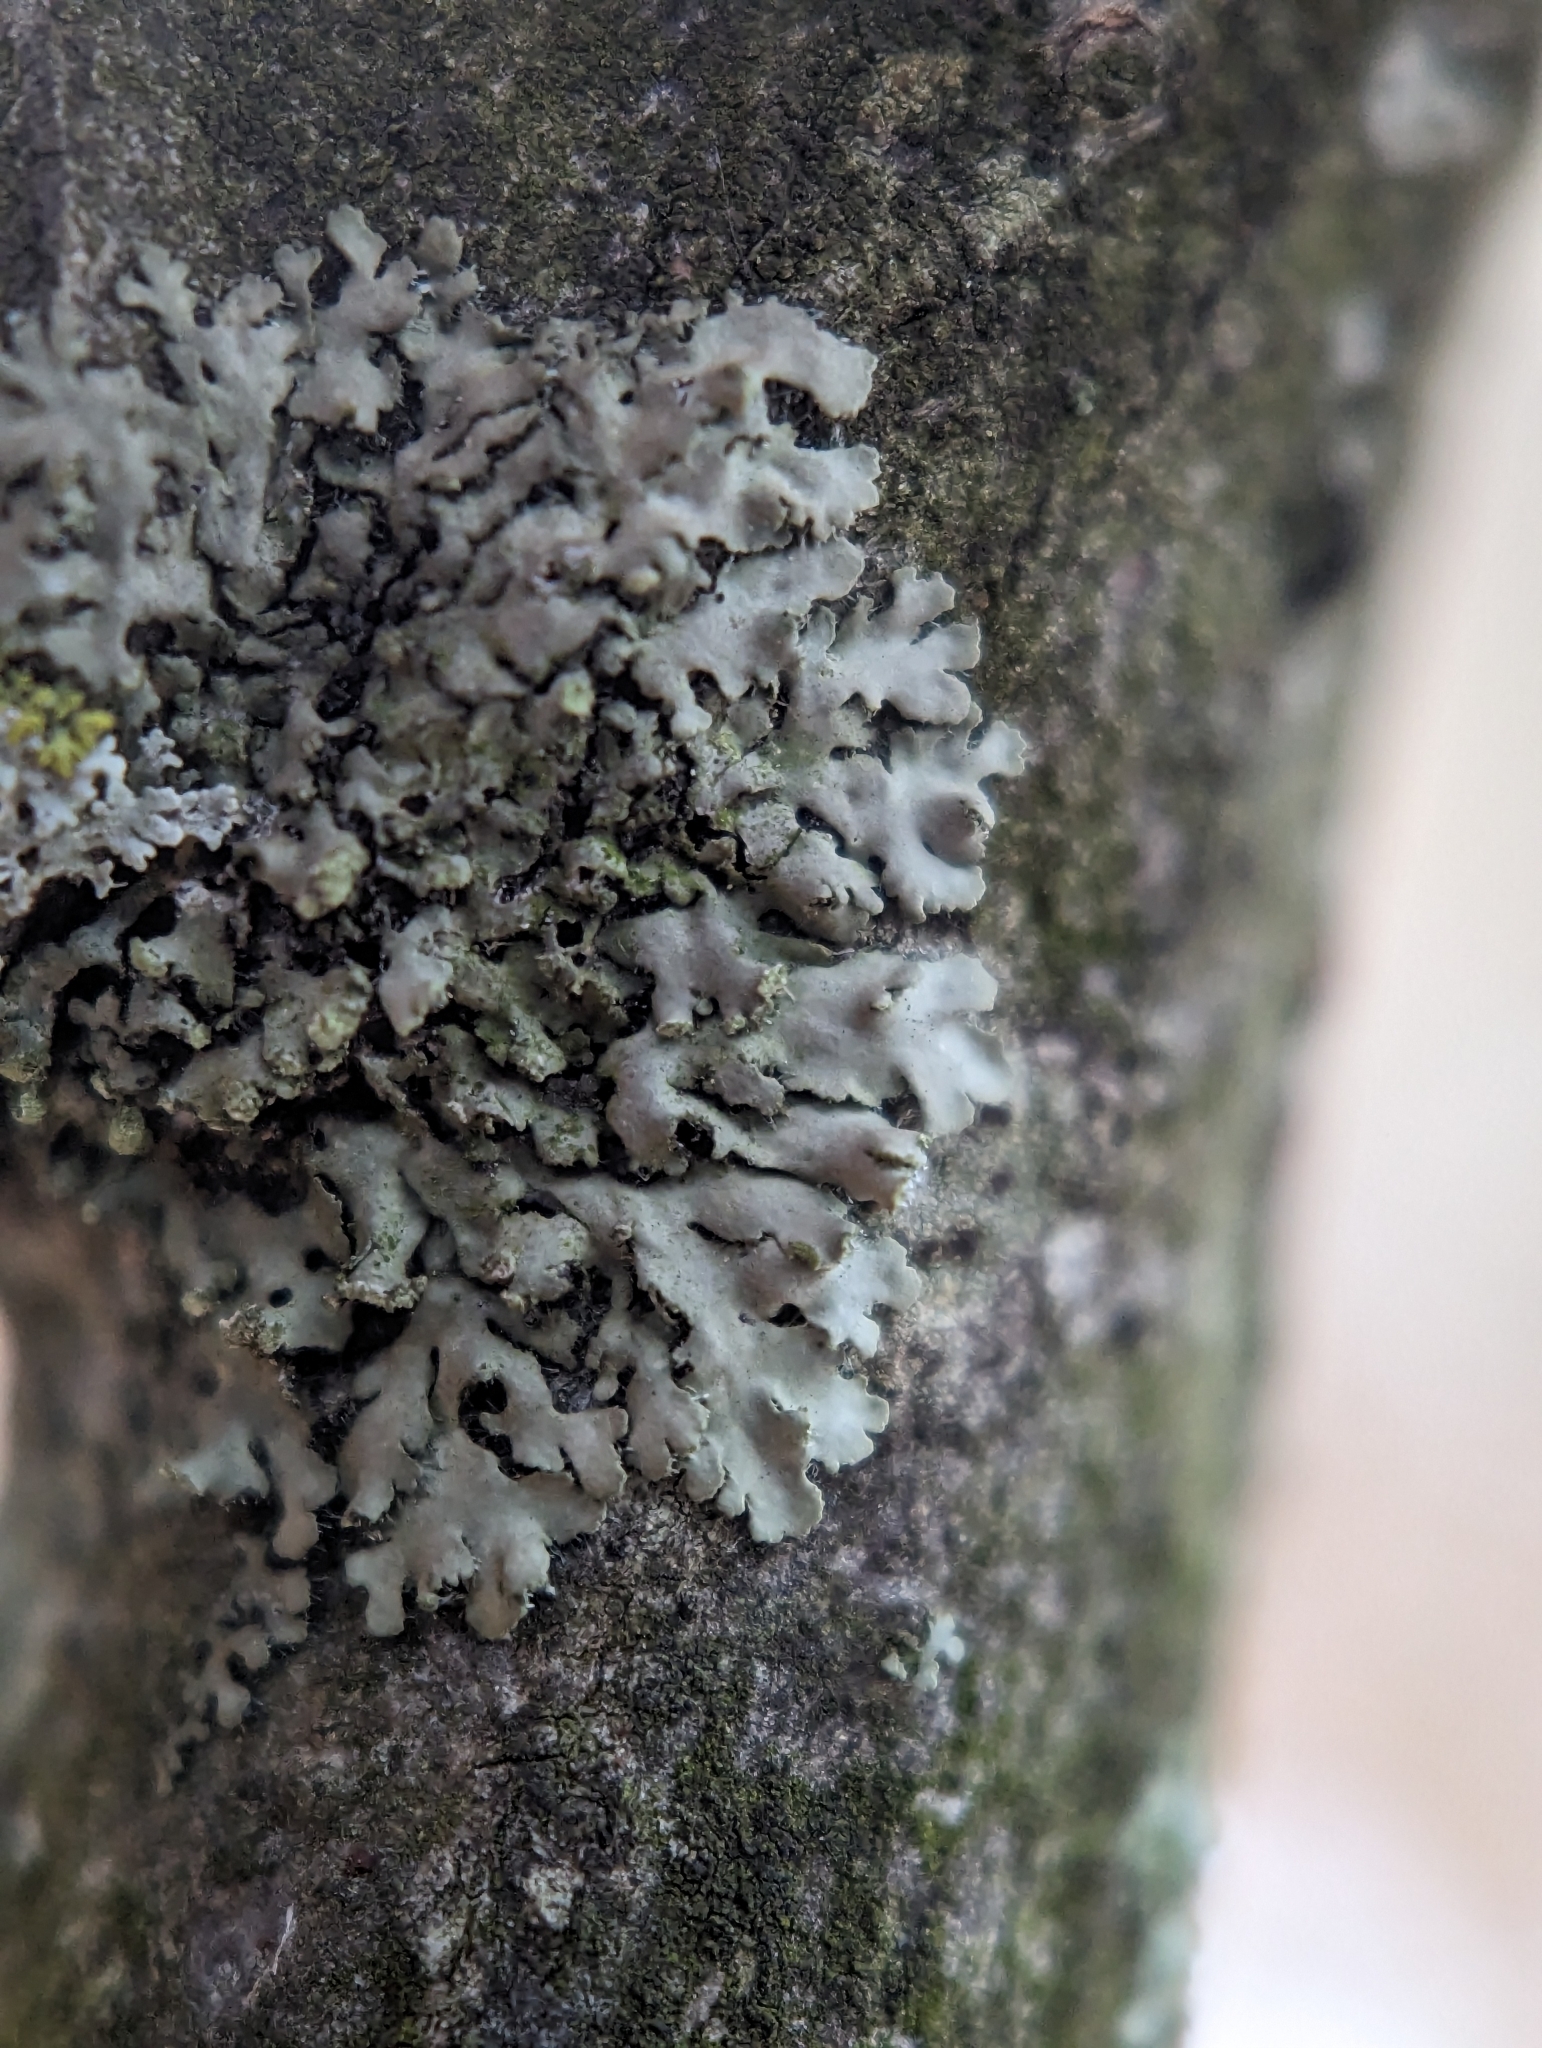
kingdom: Fungi
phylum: Ascomycota
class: Lecanoromycetes
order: Caliciales
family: Physciaceae
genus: Physciella
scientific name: Physciella chloantha
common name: Cryptic rosette lichen
